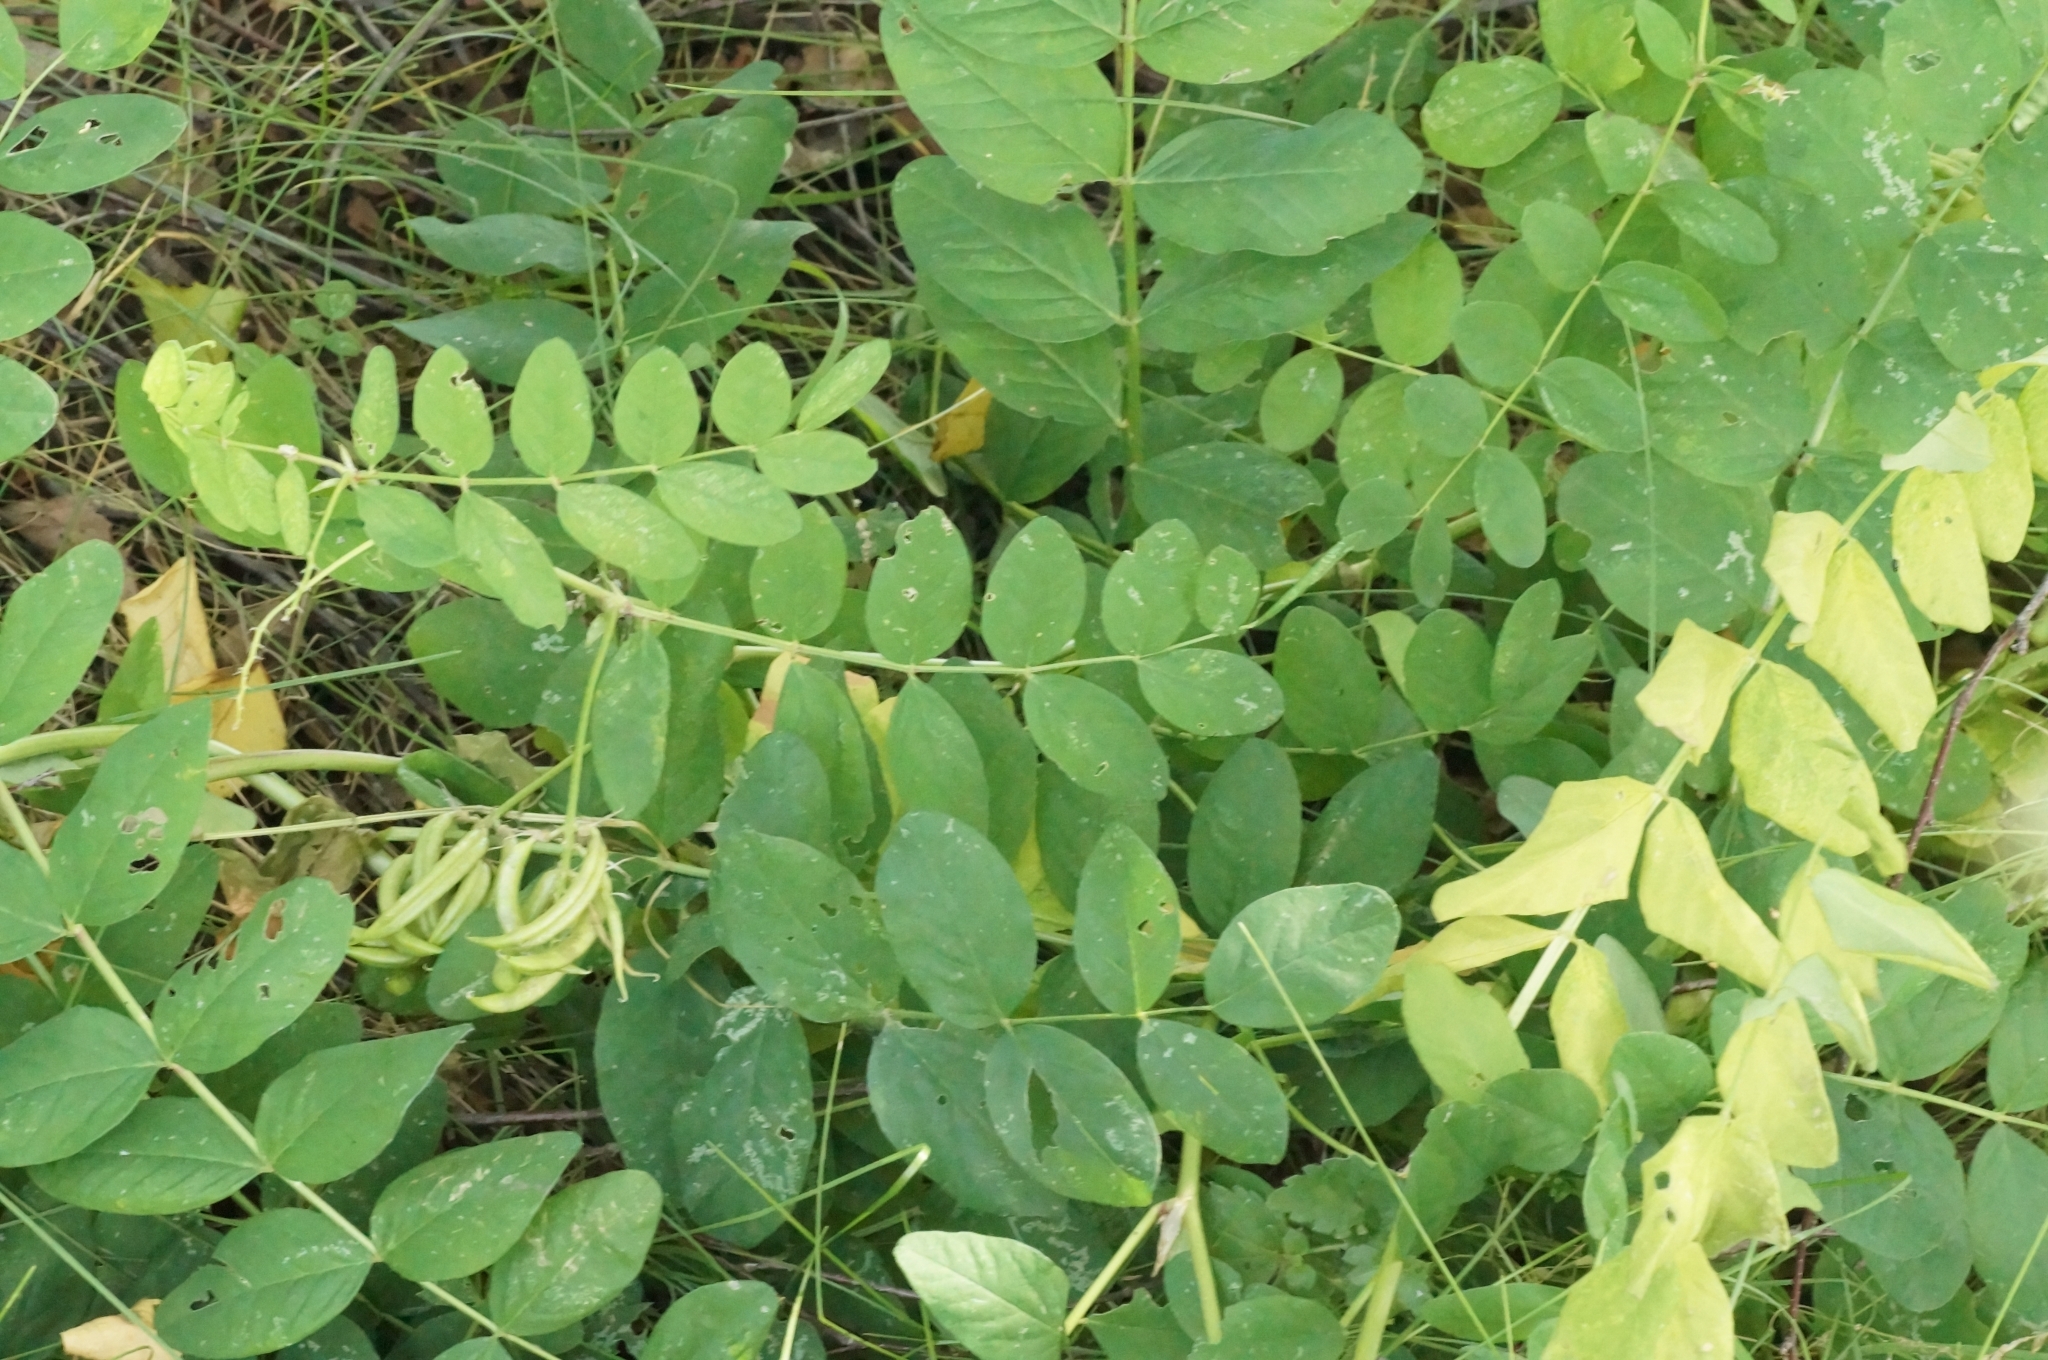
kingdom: Plantae
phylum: Tracheophyta
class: Magnoliopsida
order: Fabales
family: Fabaceae
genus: Astragalus
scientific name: Astragalus glycyphyllos
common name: Wild liquorice
